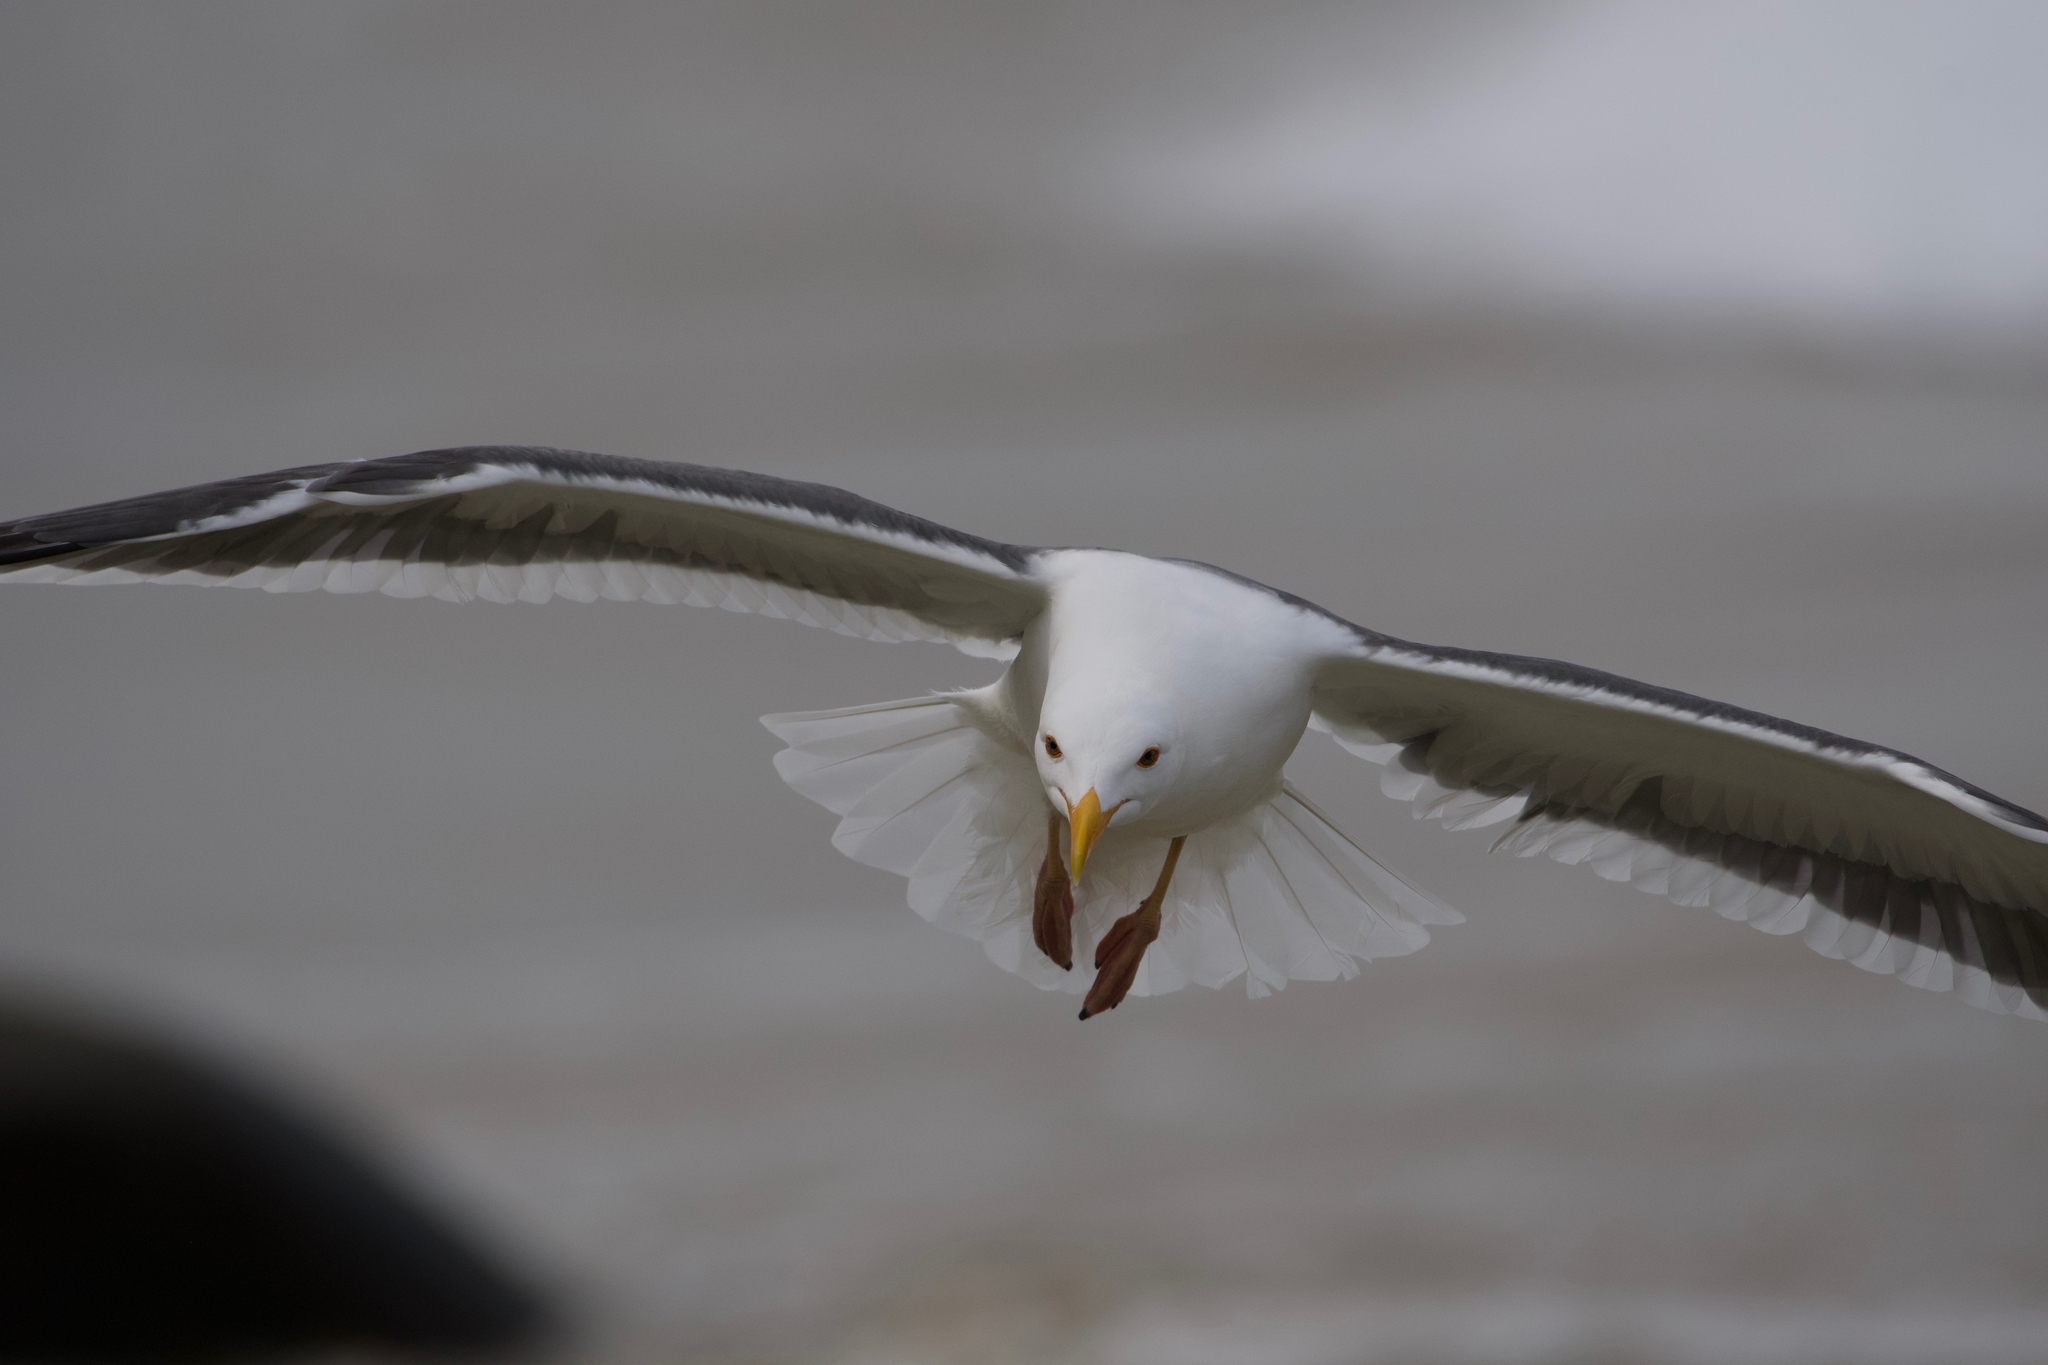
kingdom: Animalia
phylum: Chordata
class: Aves
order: Charadriiformes
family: Laridae
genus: Larus
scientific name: Larus occidentalis
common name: Western gull
